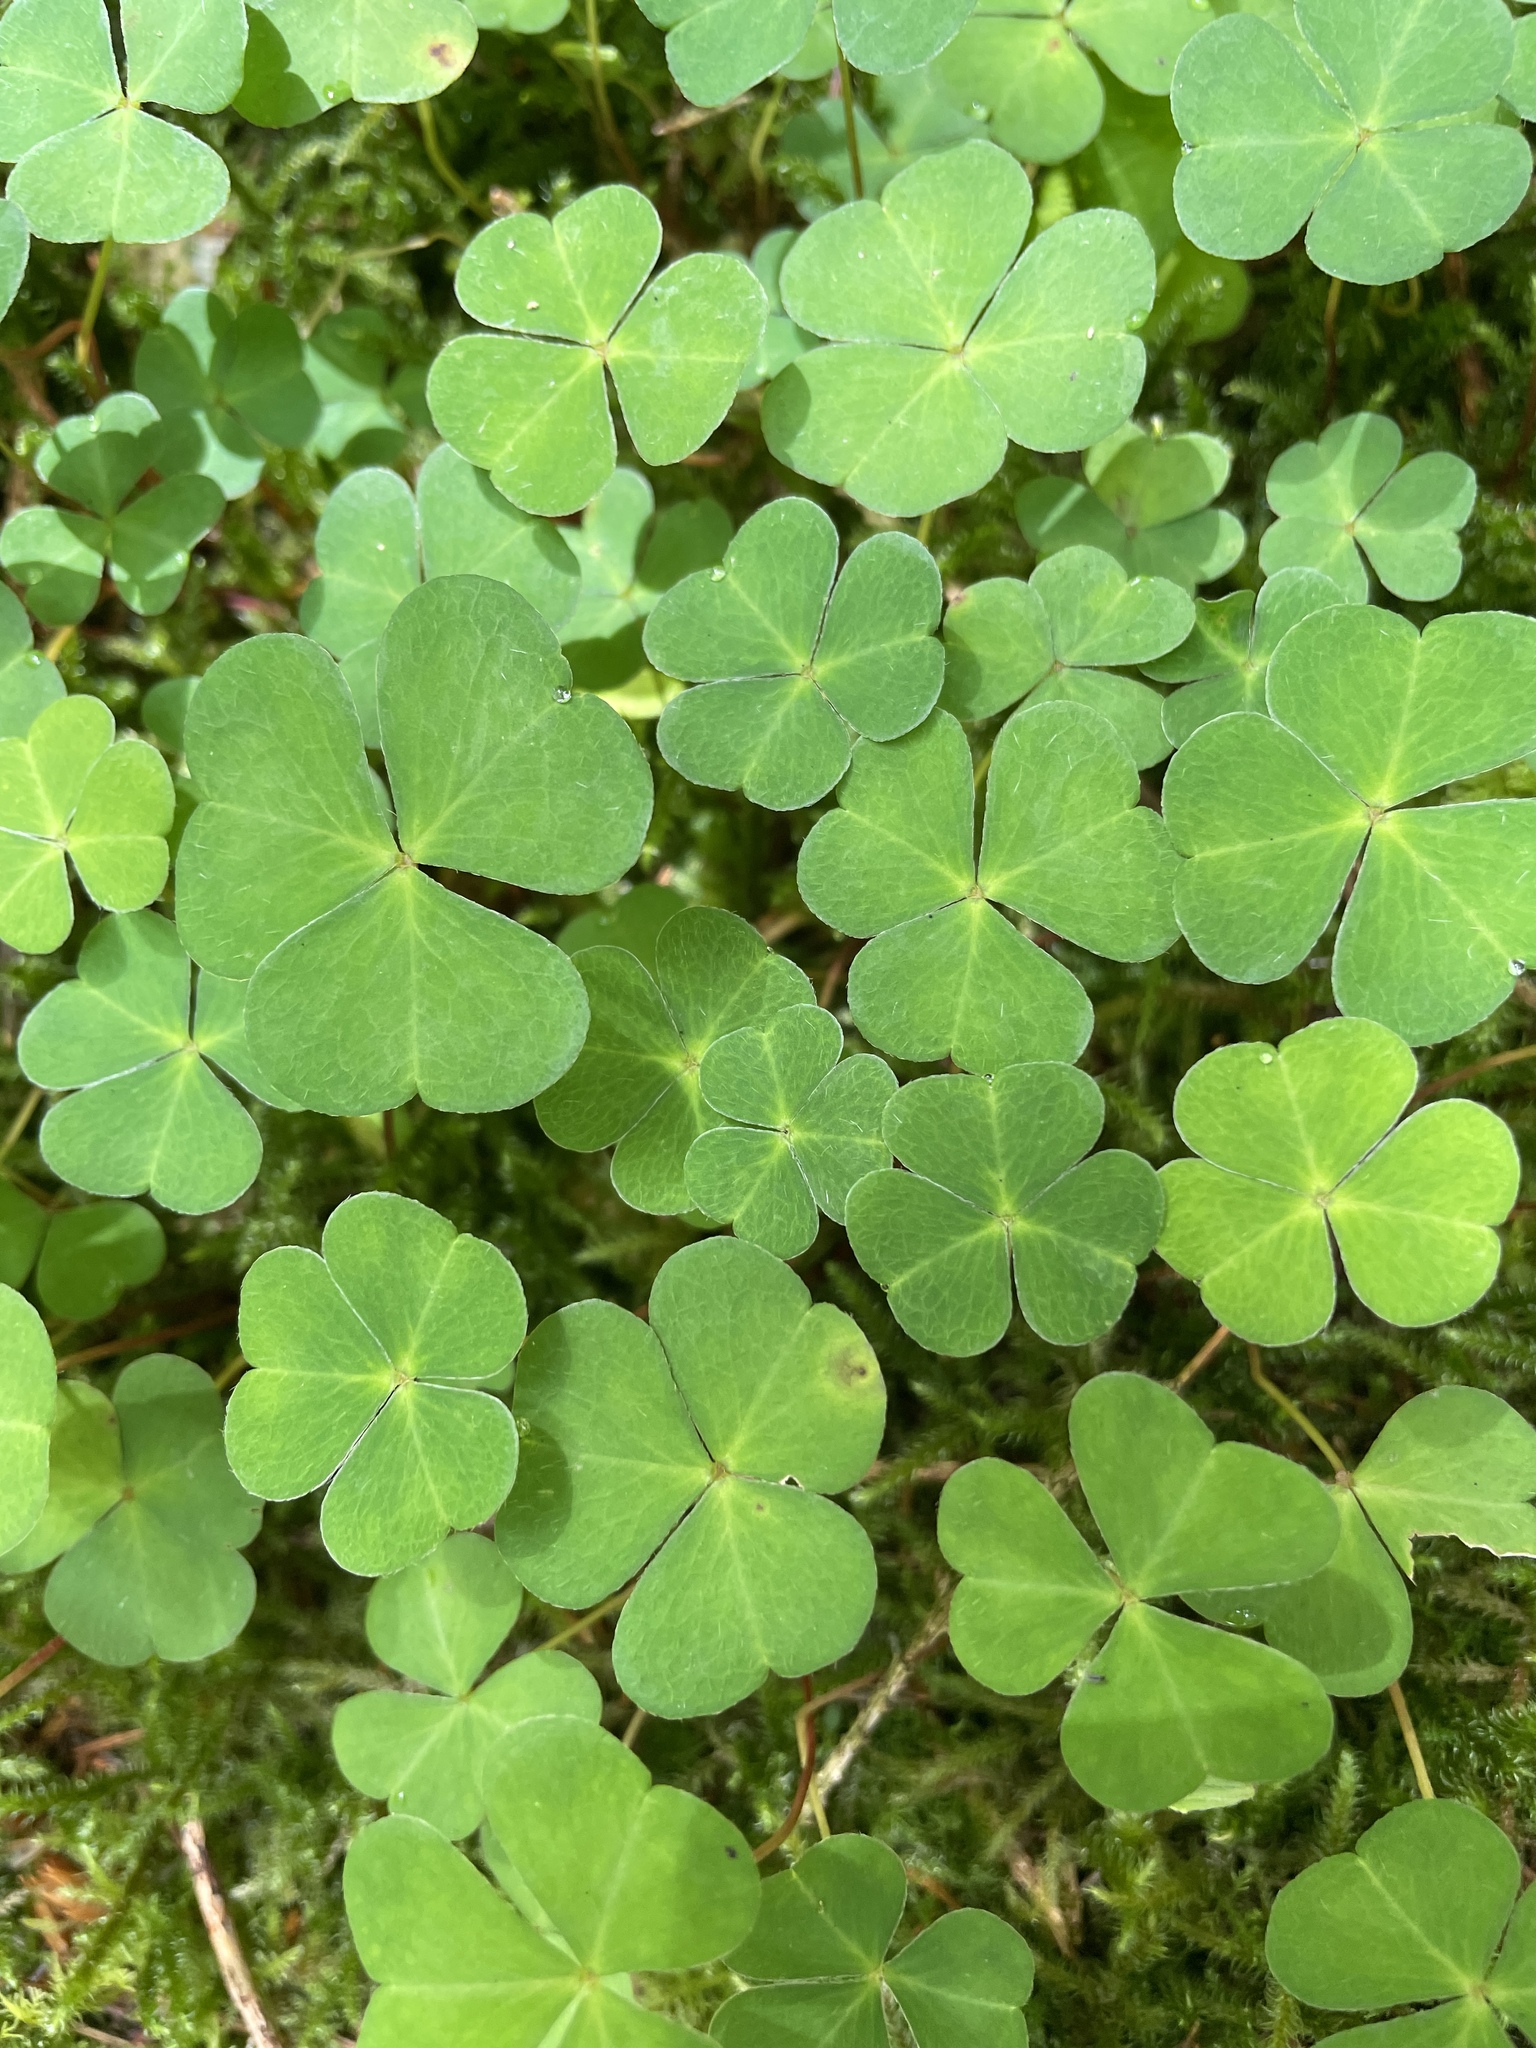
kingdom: Plantae
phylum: Tracheophyta
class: Magnoliopsida
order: Oxalidales
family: Oxalidaceae
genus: Oxalis
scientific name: Oxalis acetosella
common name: Wood-sorrel
